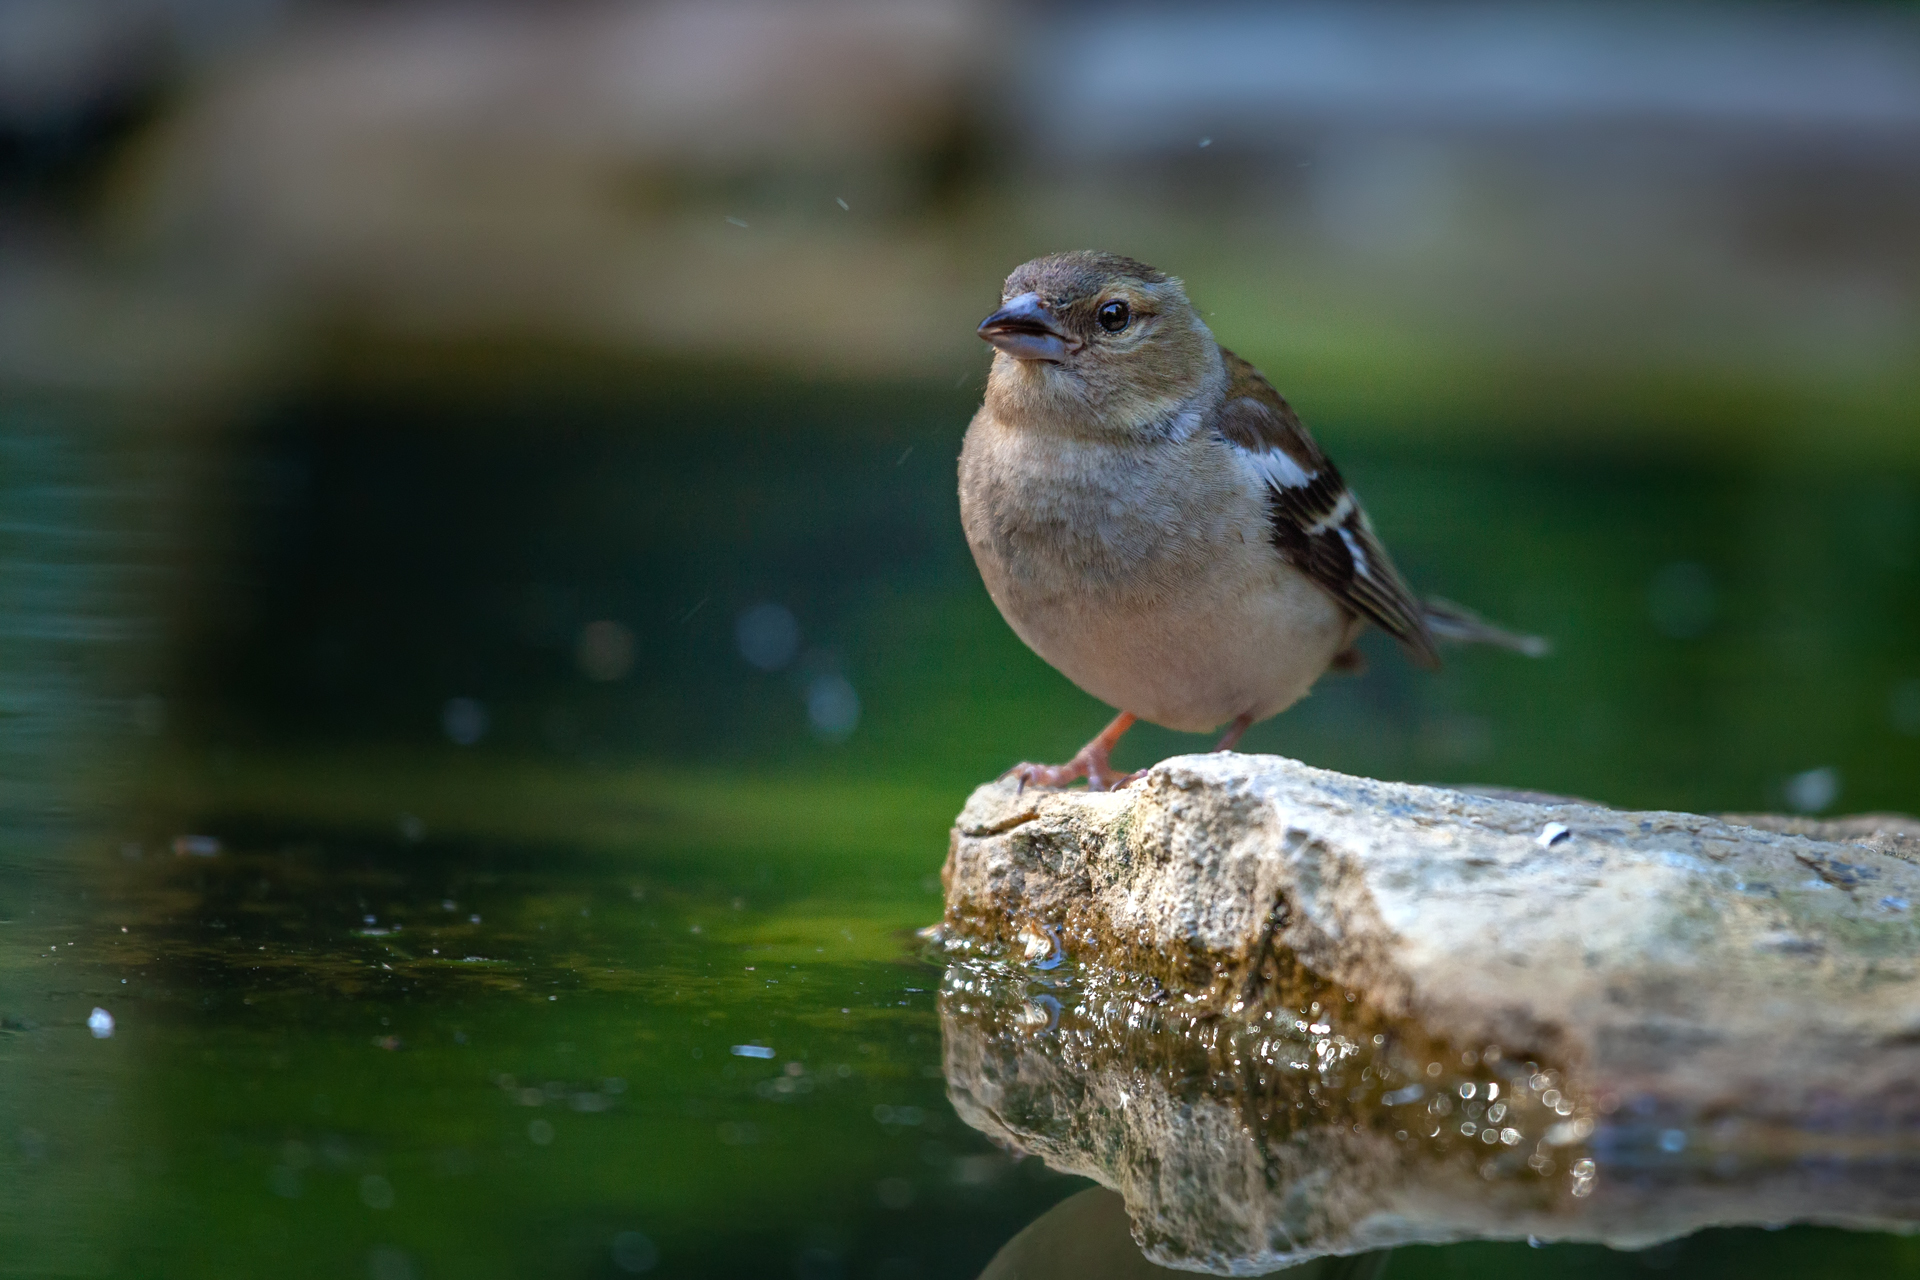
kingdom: Animalia
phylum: Chordata
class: Aves
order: Passeriformes
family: Fringillidae
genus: Fringilla
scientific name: Fringilla coelebs
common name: Common chaffinch
